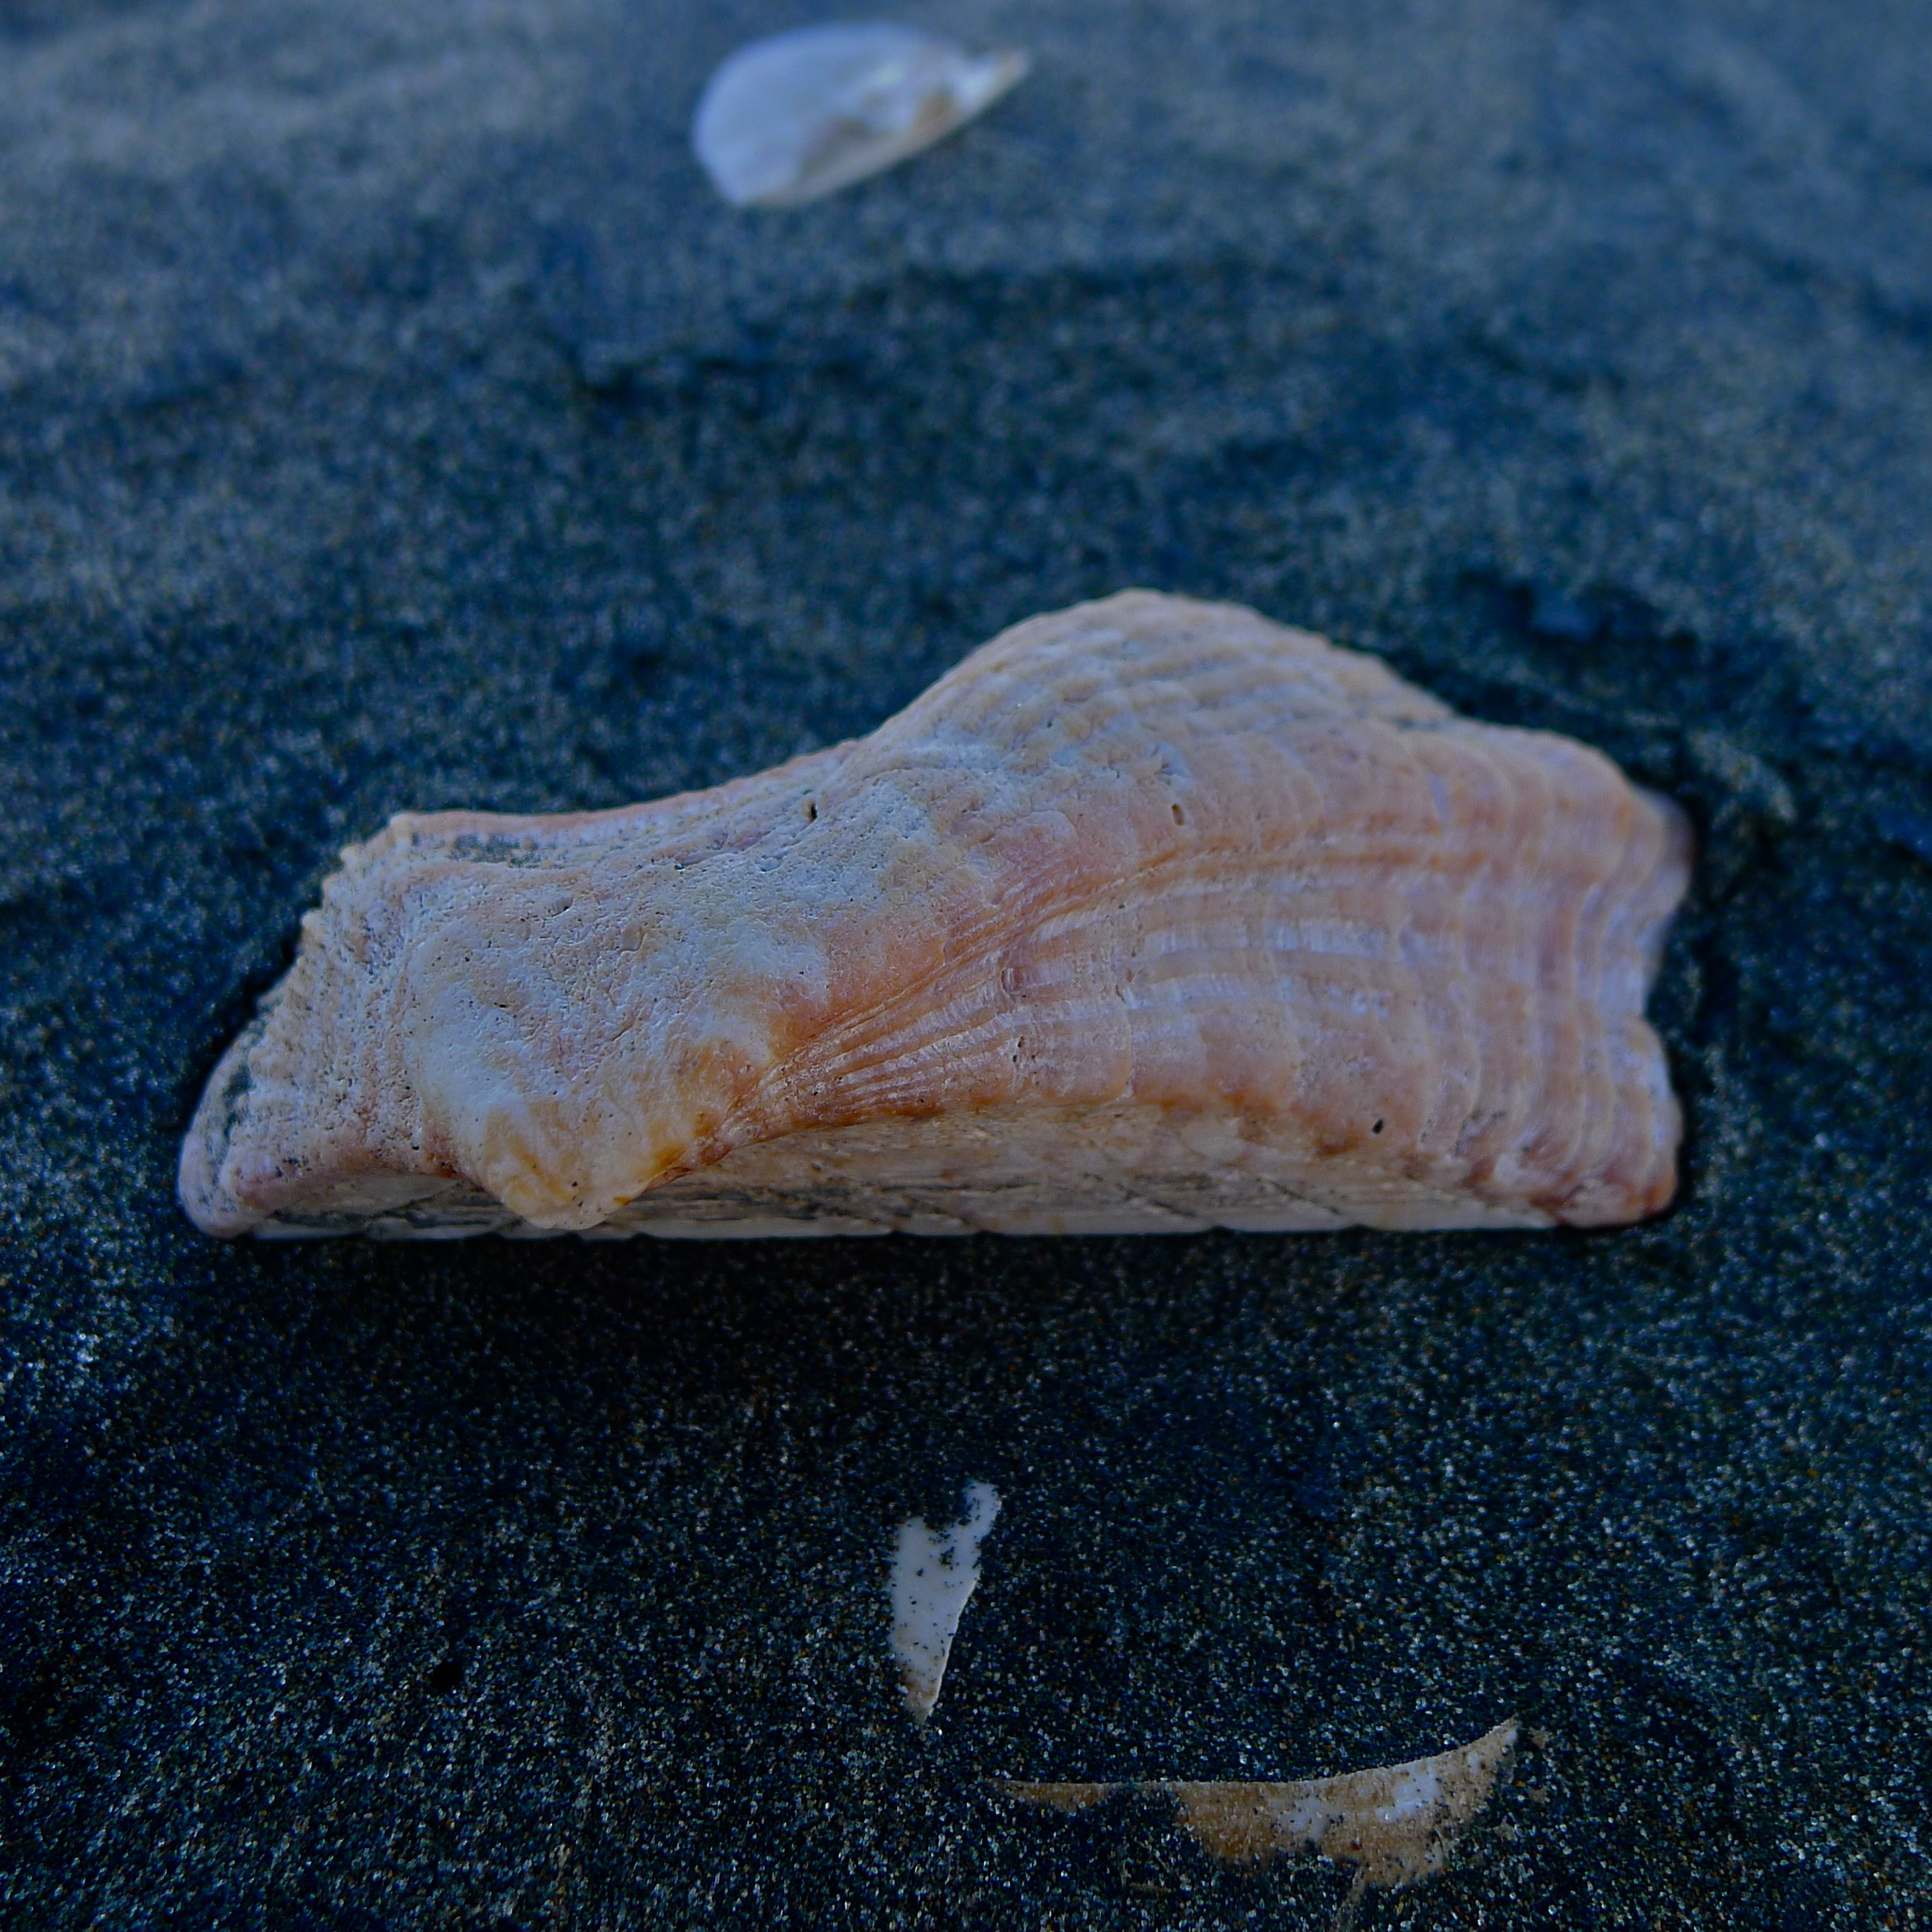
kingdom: Animalia
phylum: Mollusca
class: Bivalvia
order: Arcida
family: Arcidae
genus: Arca
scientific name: Arca pacifica
